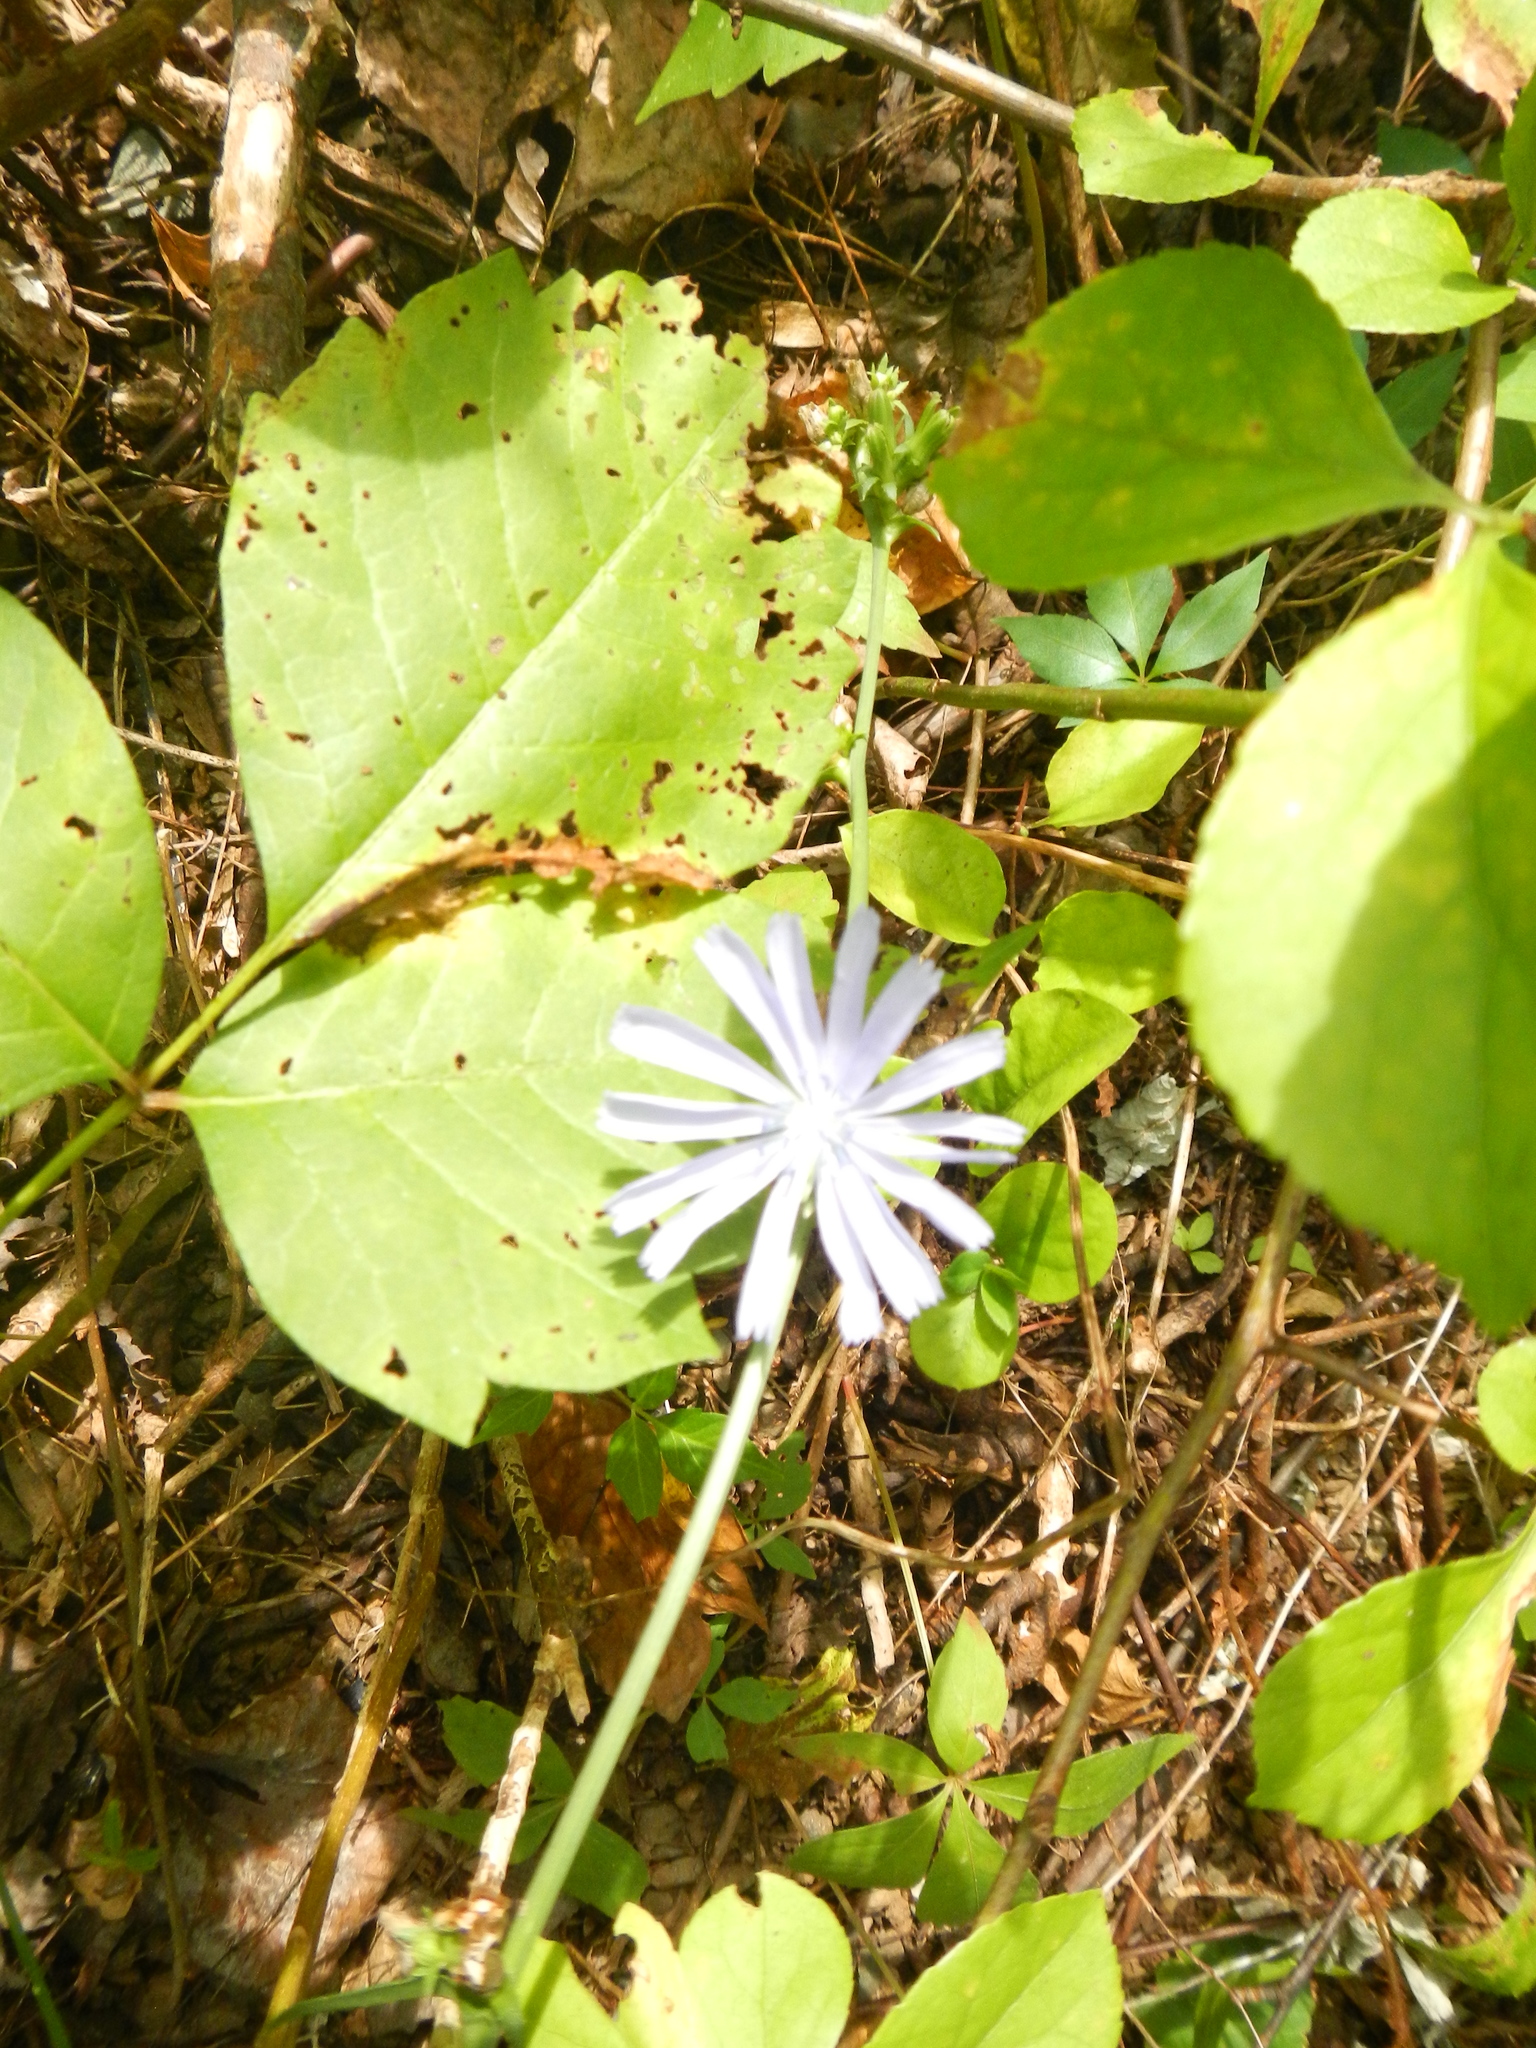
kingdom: Plantae
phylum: Tracheophyta
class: Magnoliopsida
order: Asterales
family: Asteraceae
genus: Cichorium
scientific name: Cichorium intybus
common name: Chicory
